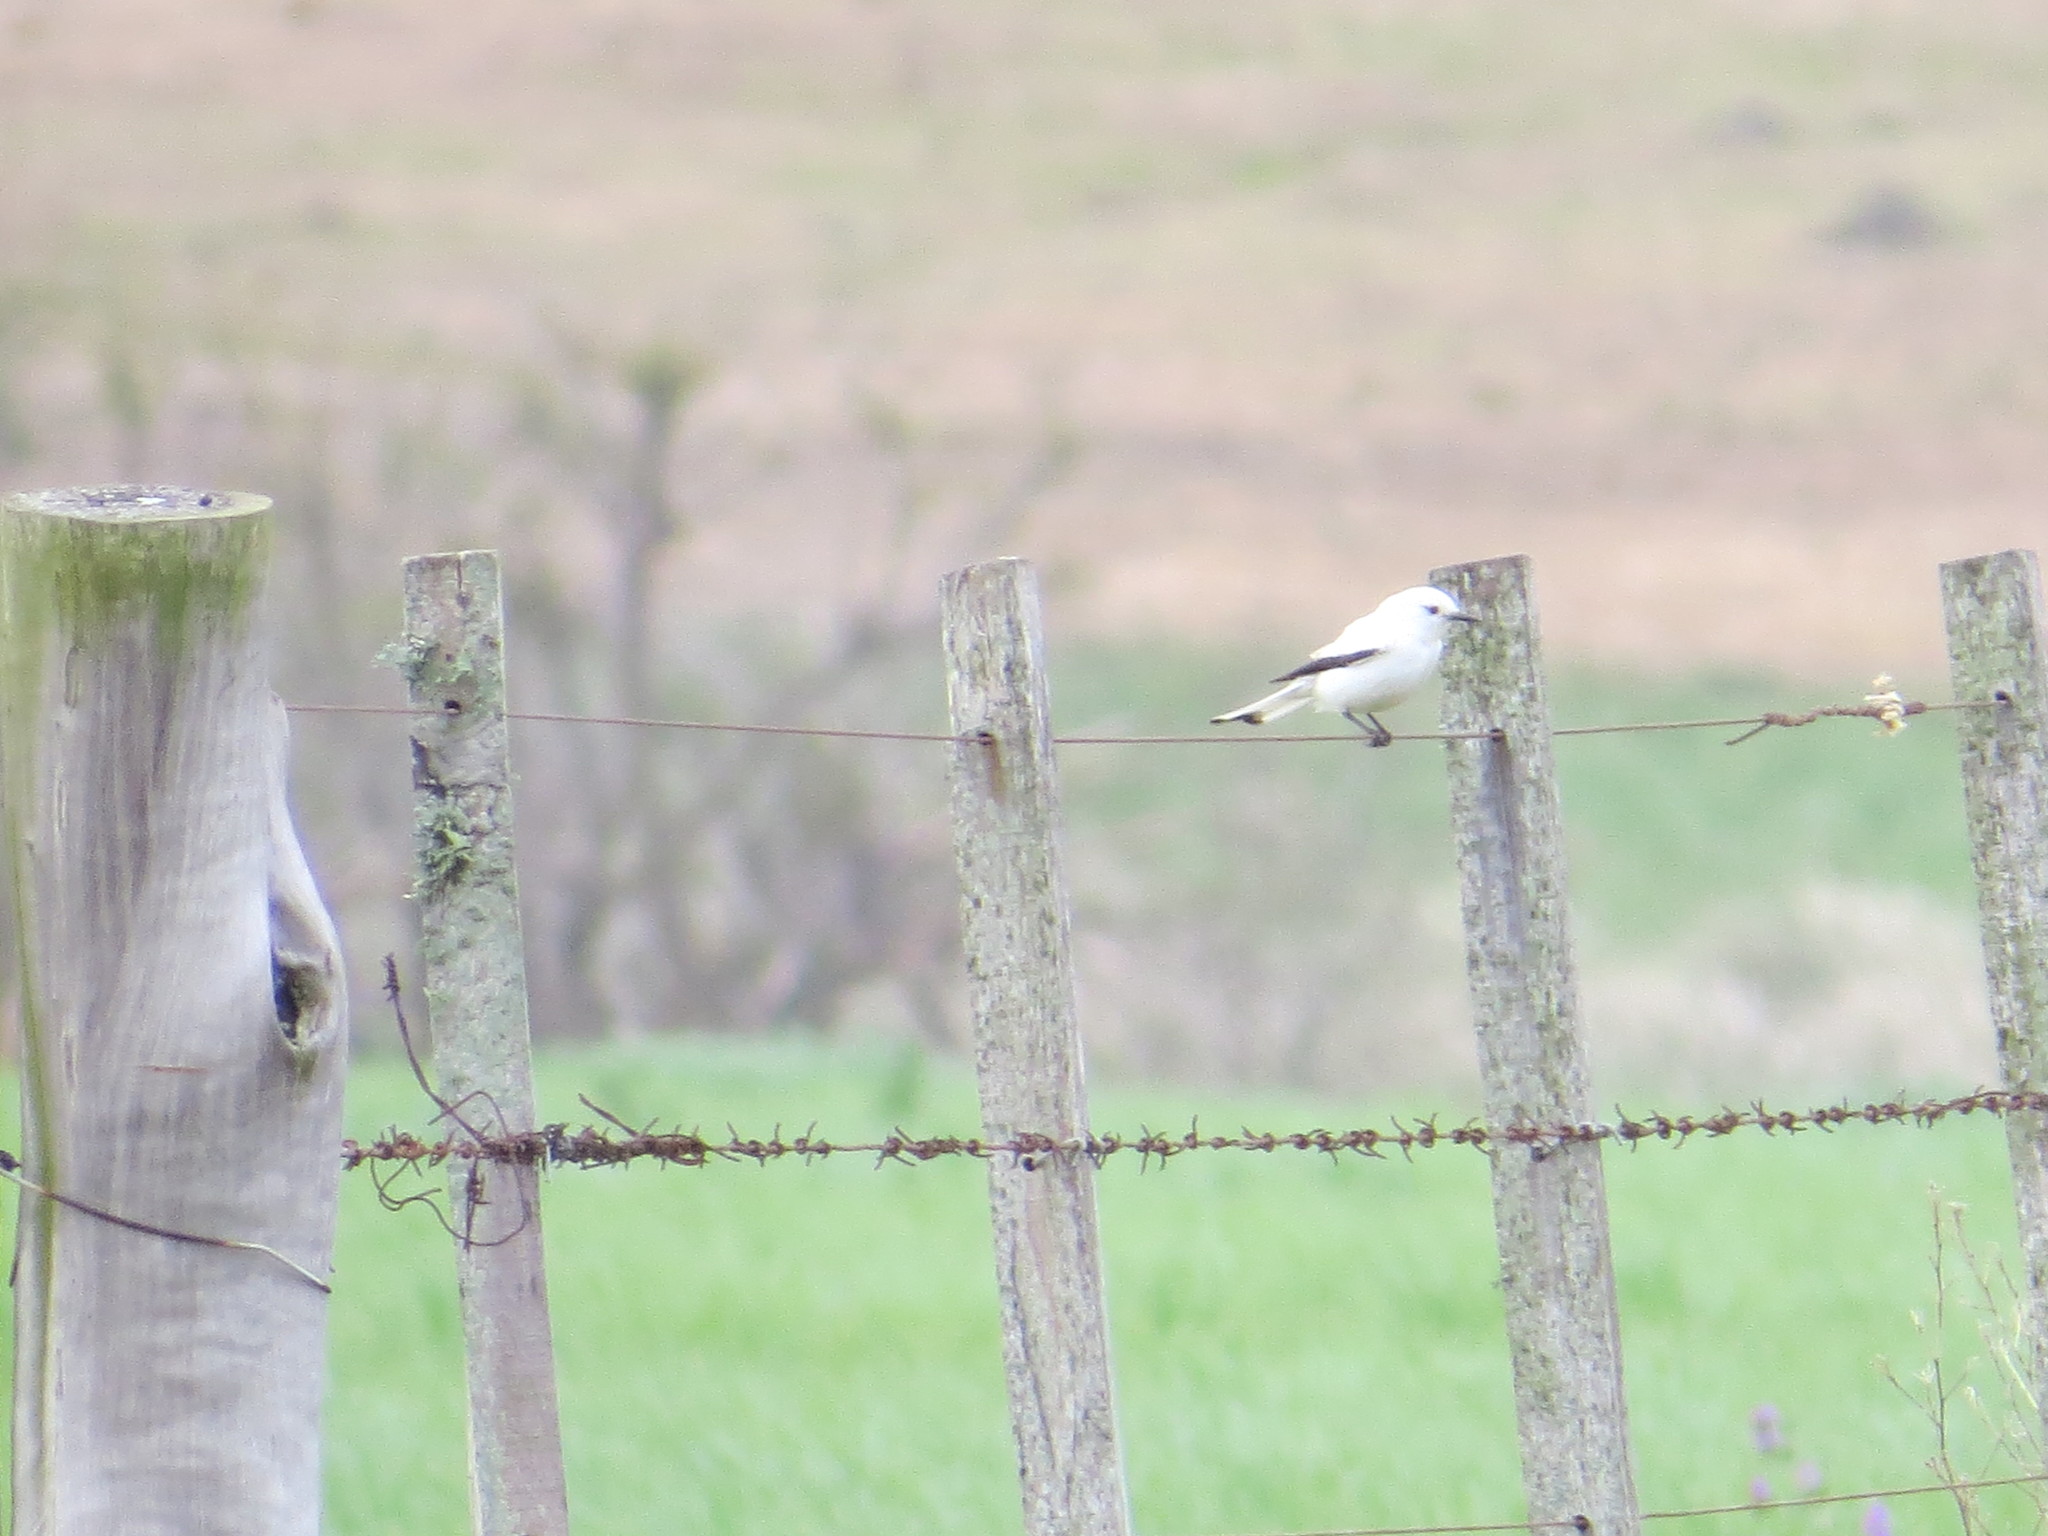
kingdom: Animalia
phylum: Chordata
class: Aves
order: Passeriformes
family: Tyrannidae
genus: Xolmis
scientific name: Xolmis irupero
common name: White monjita
